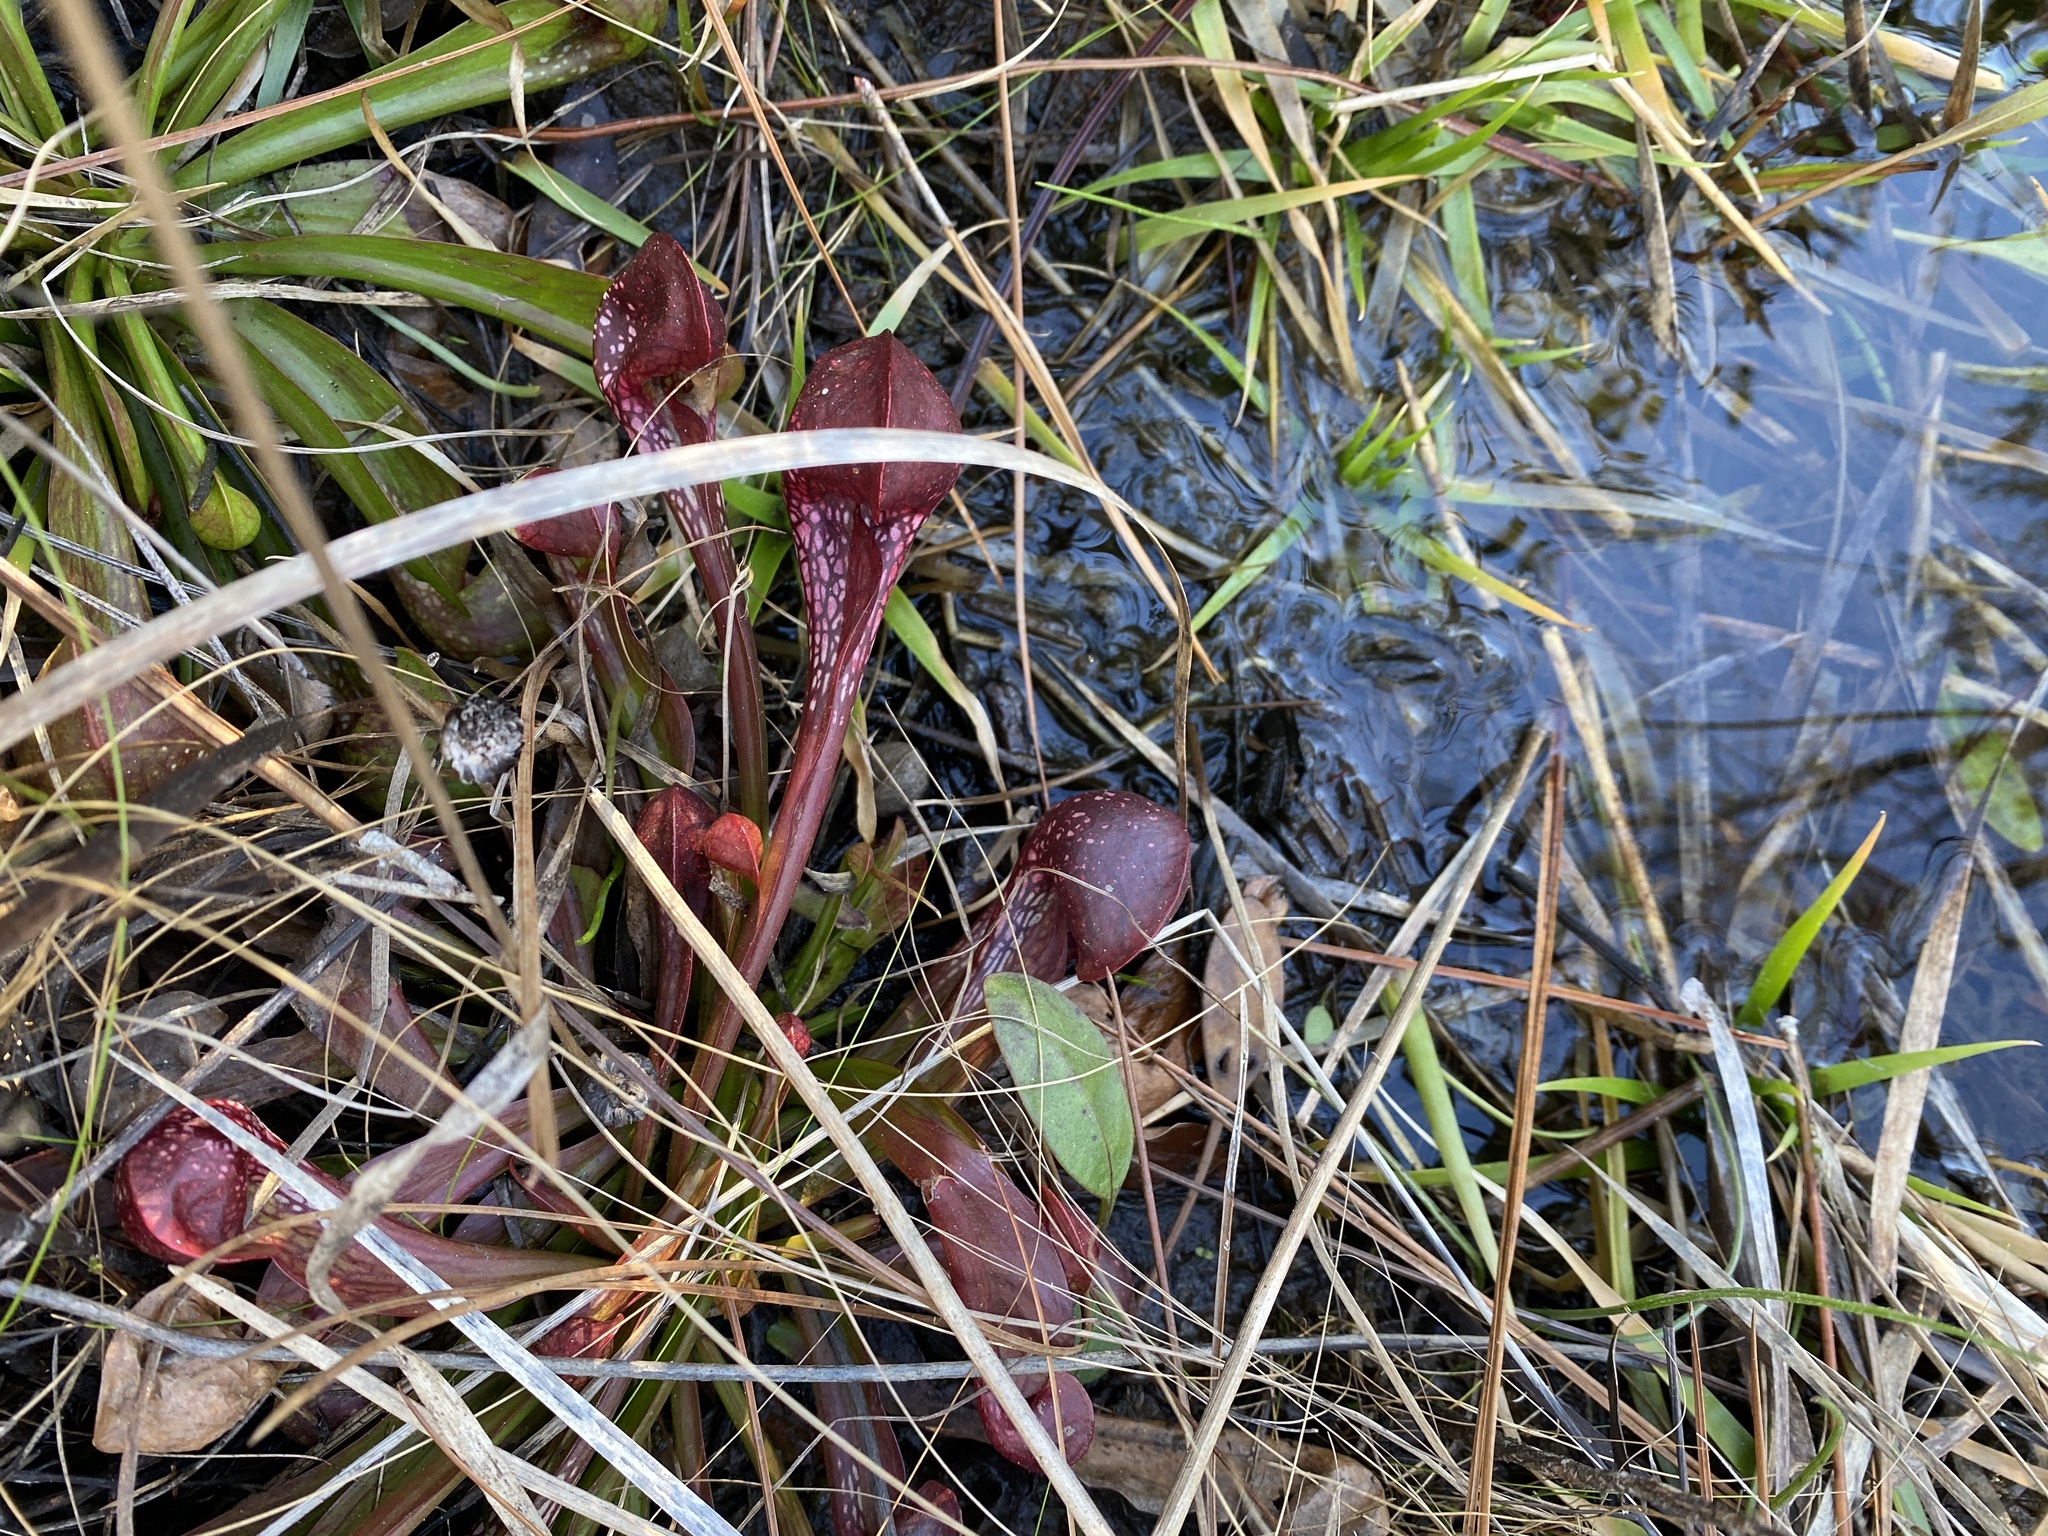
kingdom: Plantae
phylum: Tracheophyta
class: Magnoliopsida
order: Ericales
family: Sarraceniaceae
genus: Sarracenia
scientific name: Sarracenia psittacina
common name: Parrot pitcherplant
